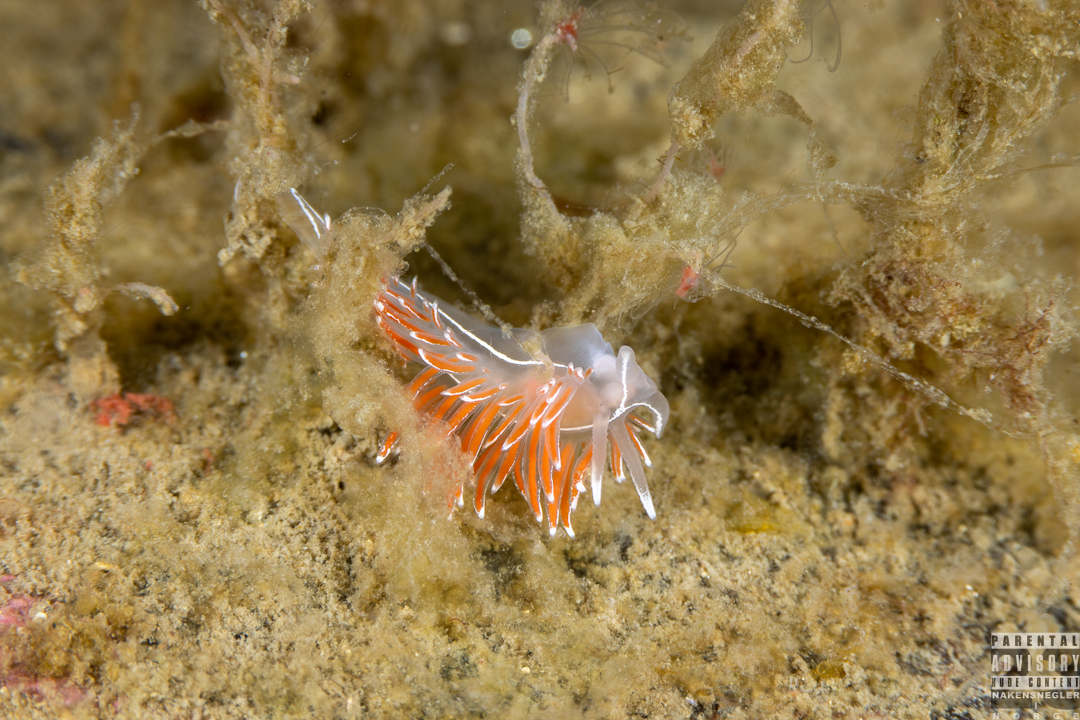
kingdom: Animalia
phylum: Mollusca
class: Gastropoda
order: Nudibranchia
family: Coryphellidae
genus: Coryphella
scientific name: Coryphella lineata
